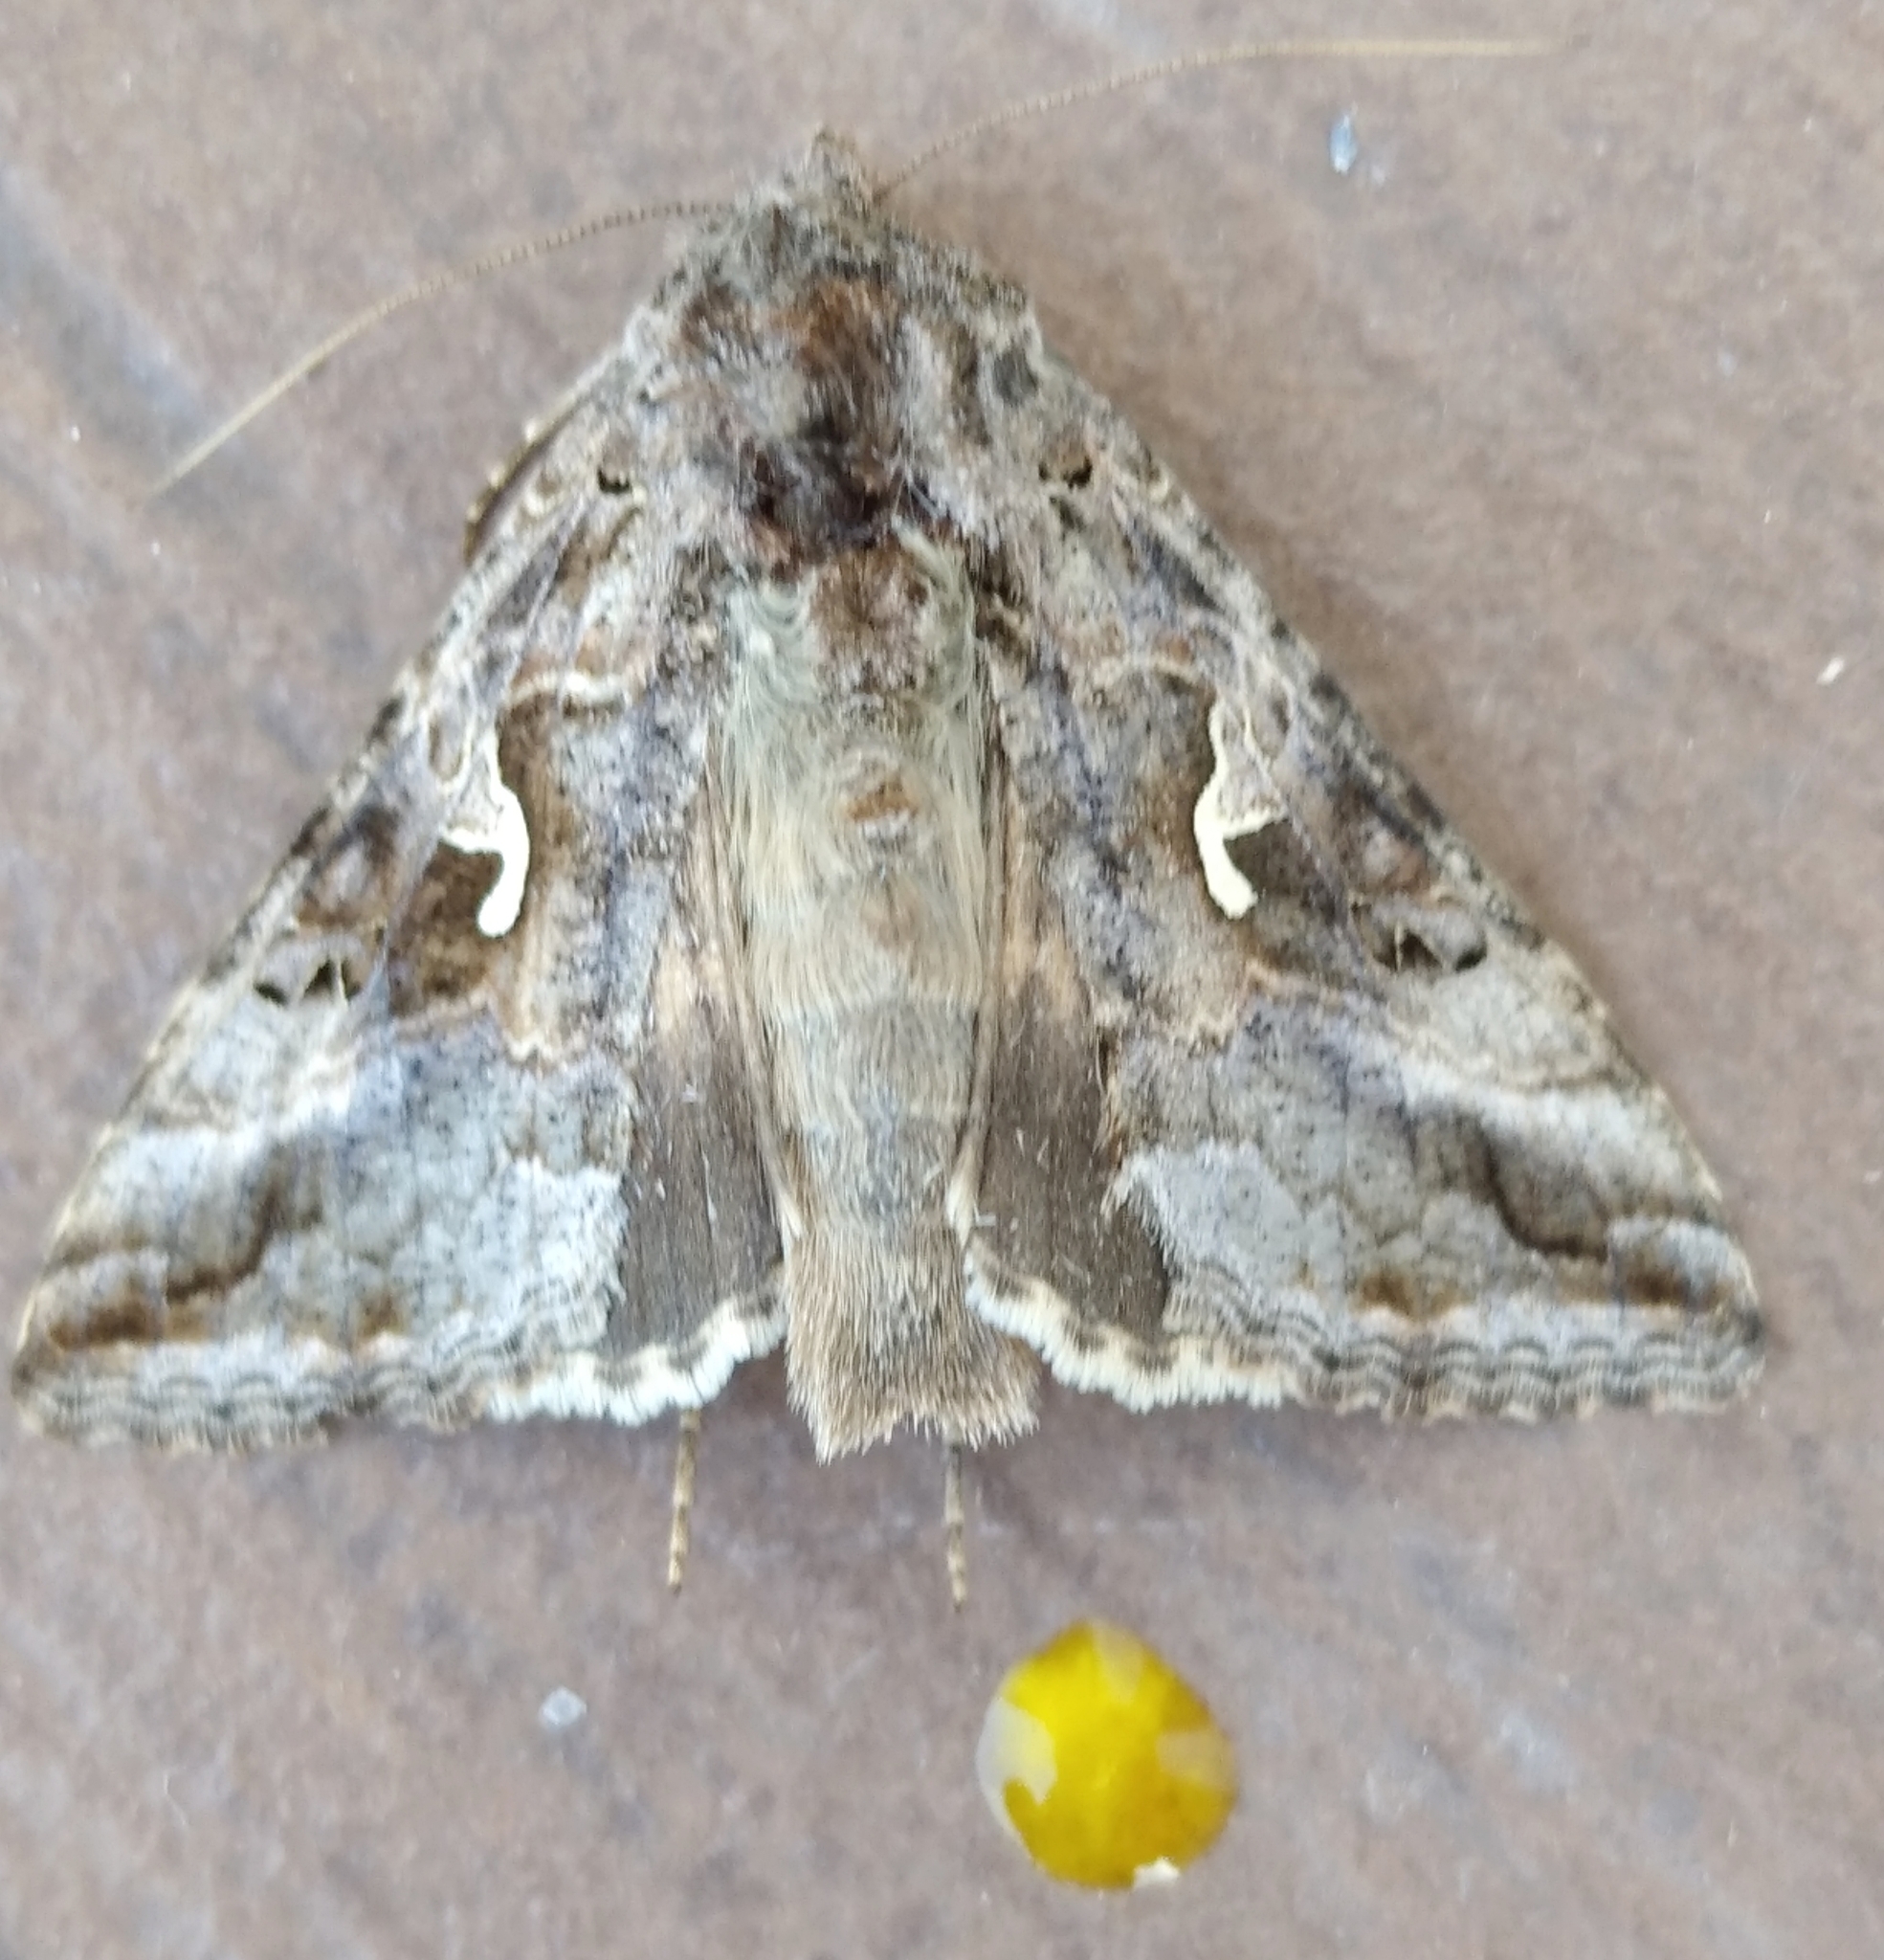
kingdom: Animalia
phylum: Arthropoda
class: Insecta
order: Lepidoptera
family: Noctuidae
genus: Autographa
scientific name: Autographa gamma
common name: Silver y
